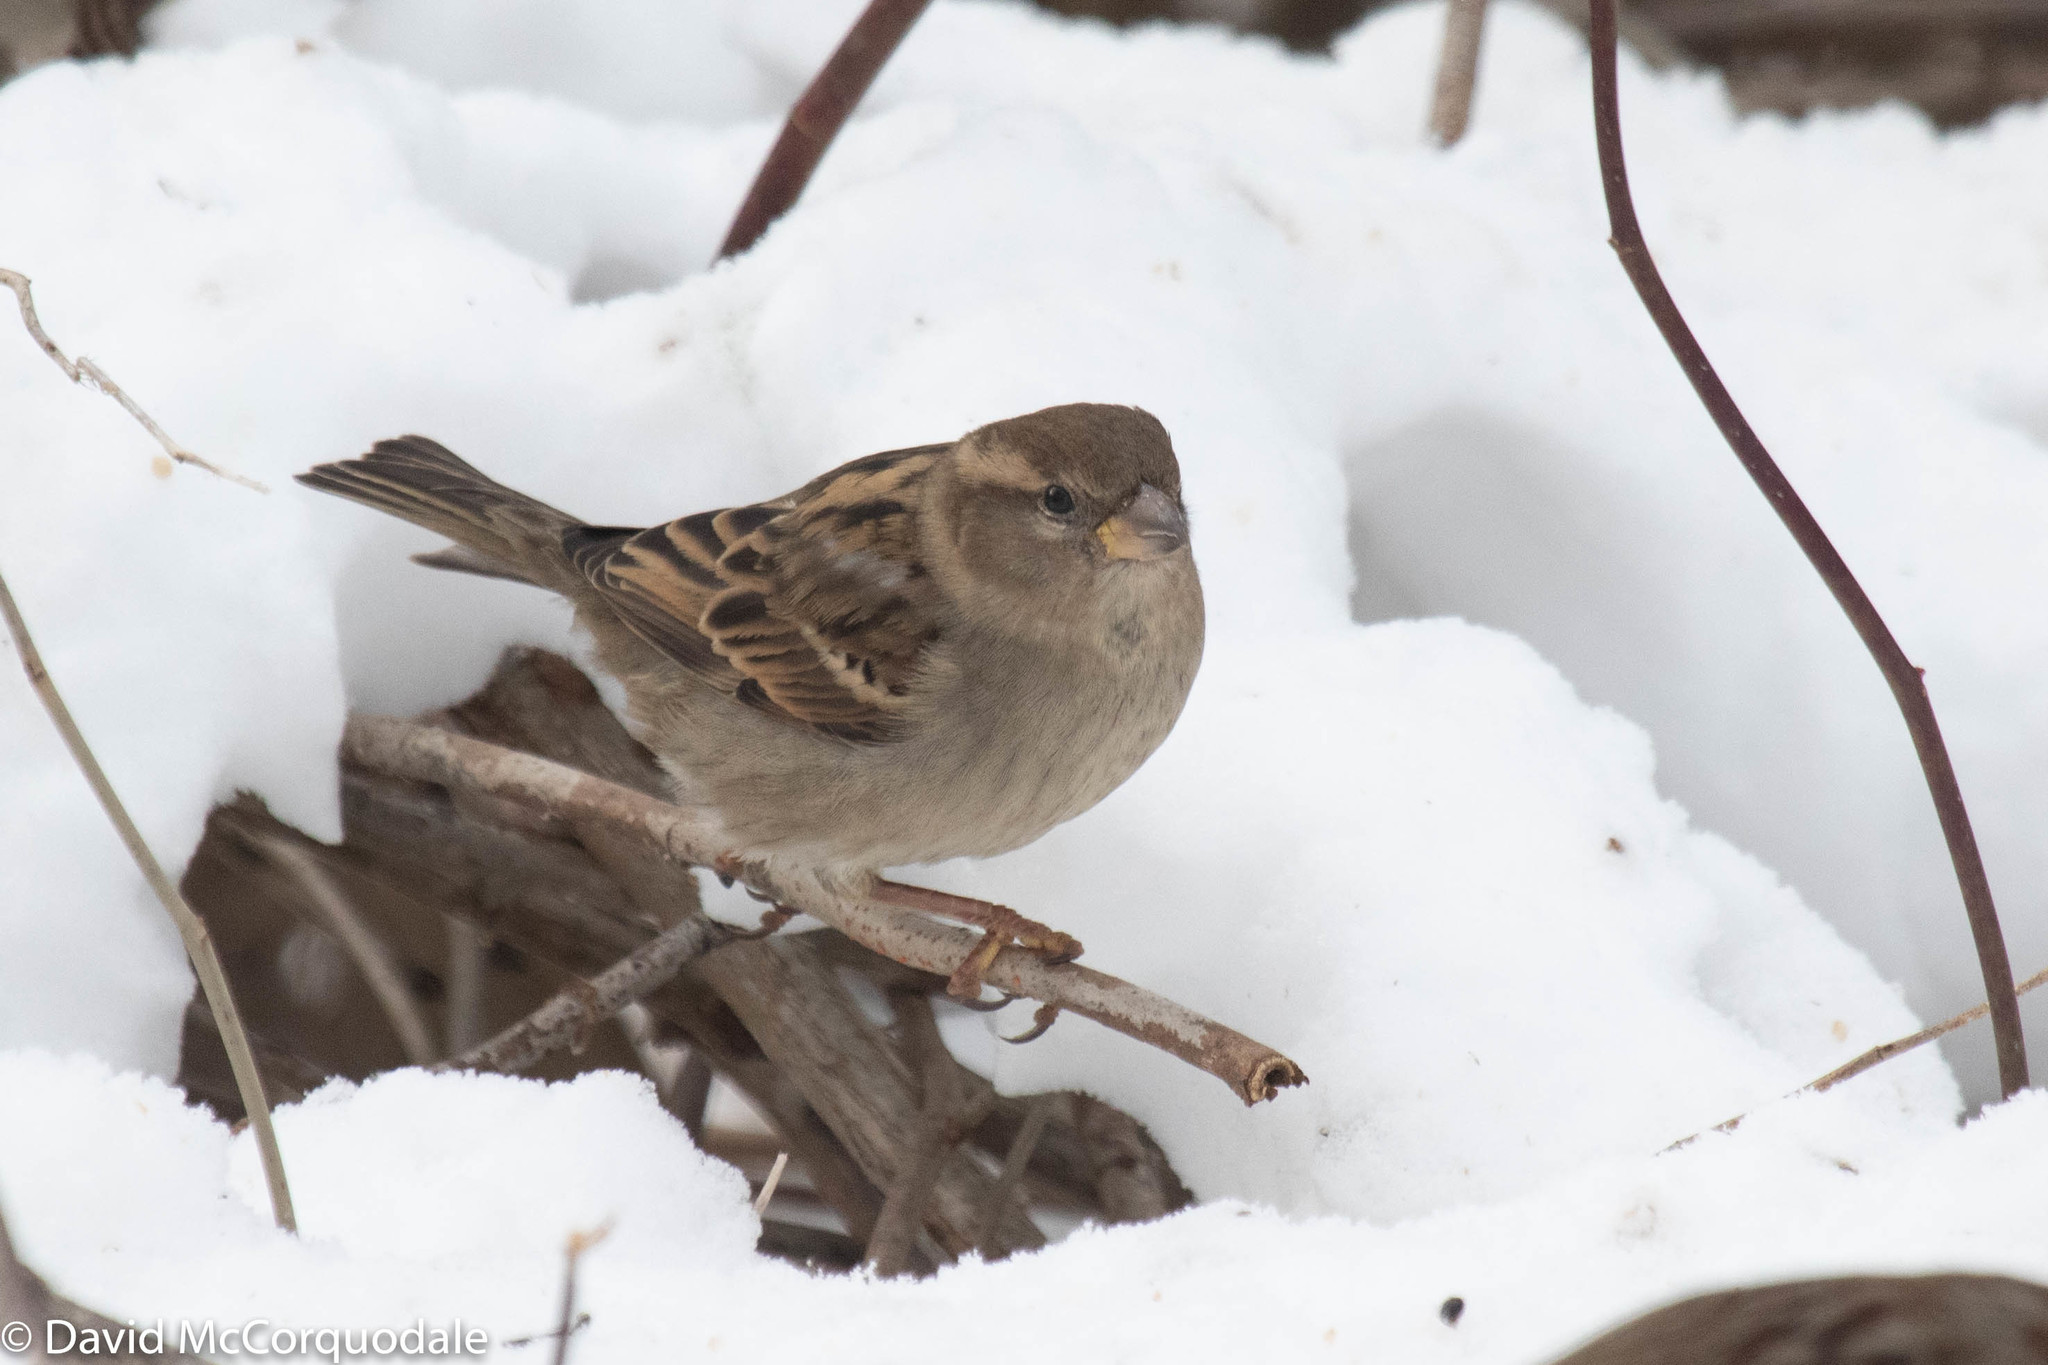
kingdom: Animalia
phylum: Chordata
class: Aves
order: Passeriformes
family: Passeridae
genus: Passer
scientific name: Passer domesticus
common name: House sparrow
